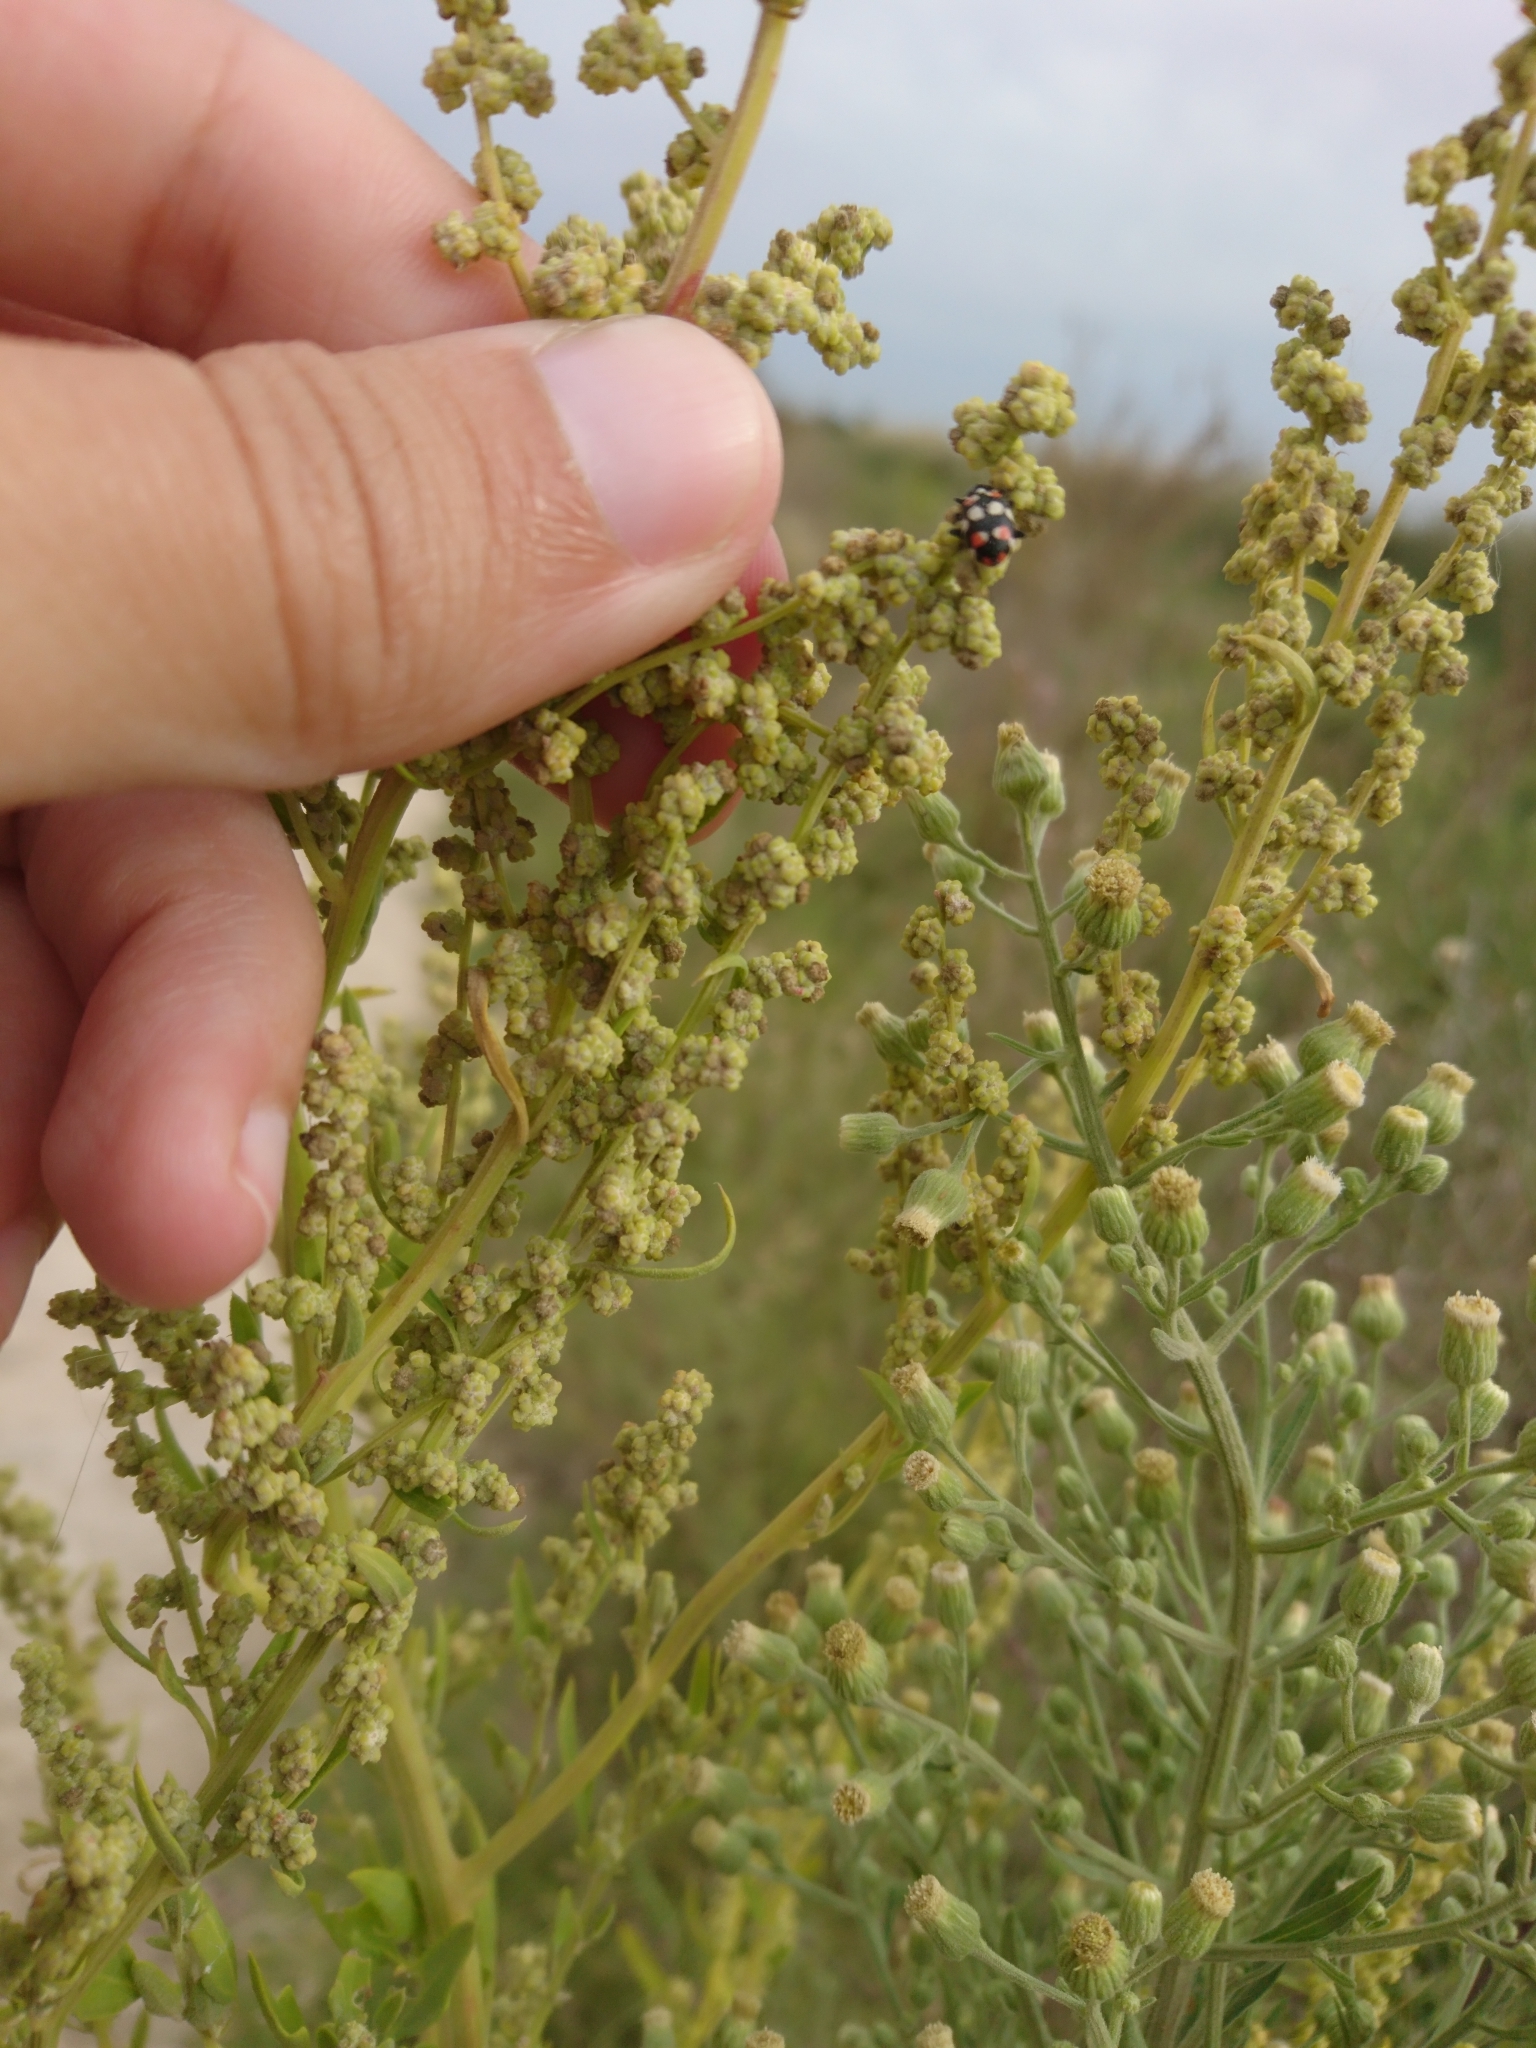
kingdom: Animalia
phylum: Arthropoda
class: Insecta
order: Coleoptera
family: Coccinellidae
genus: Eriopis
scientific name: Eriopis connexa
